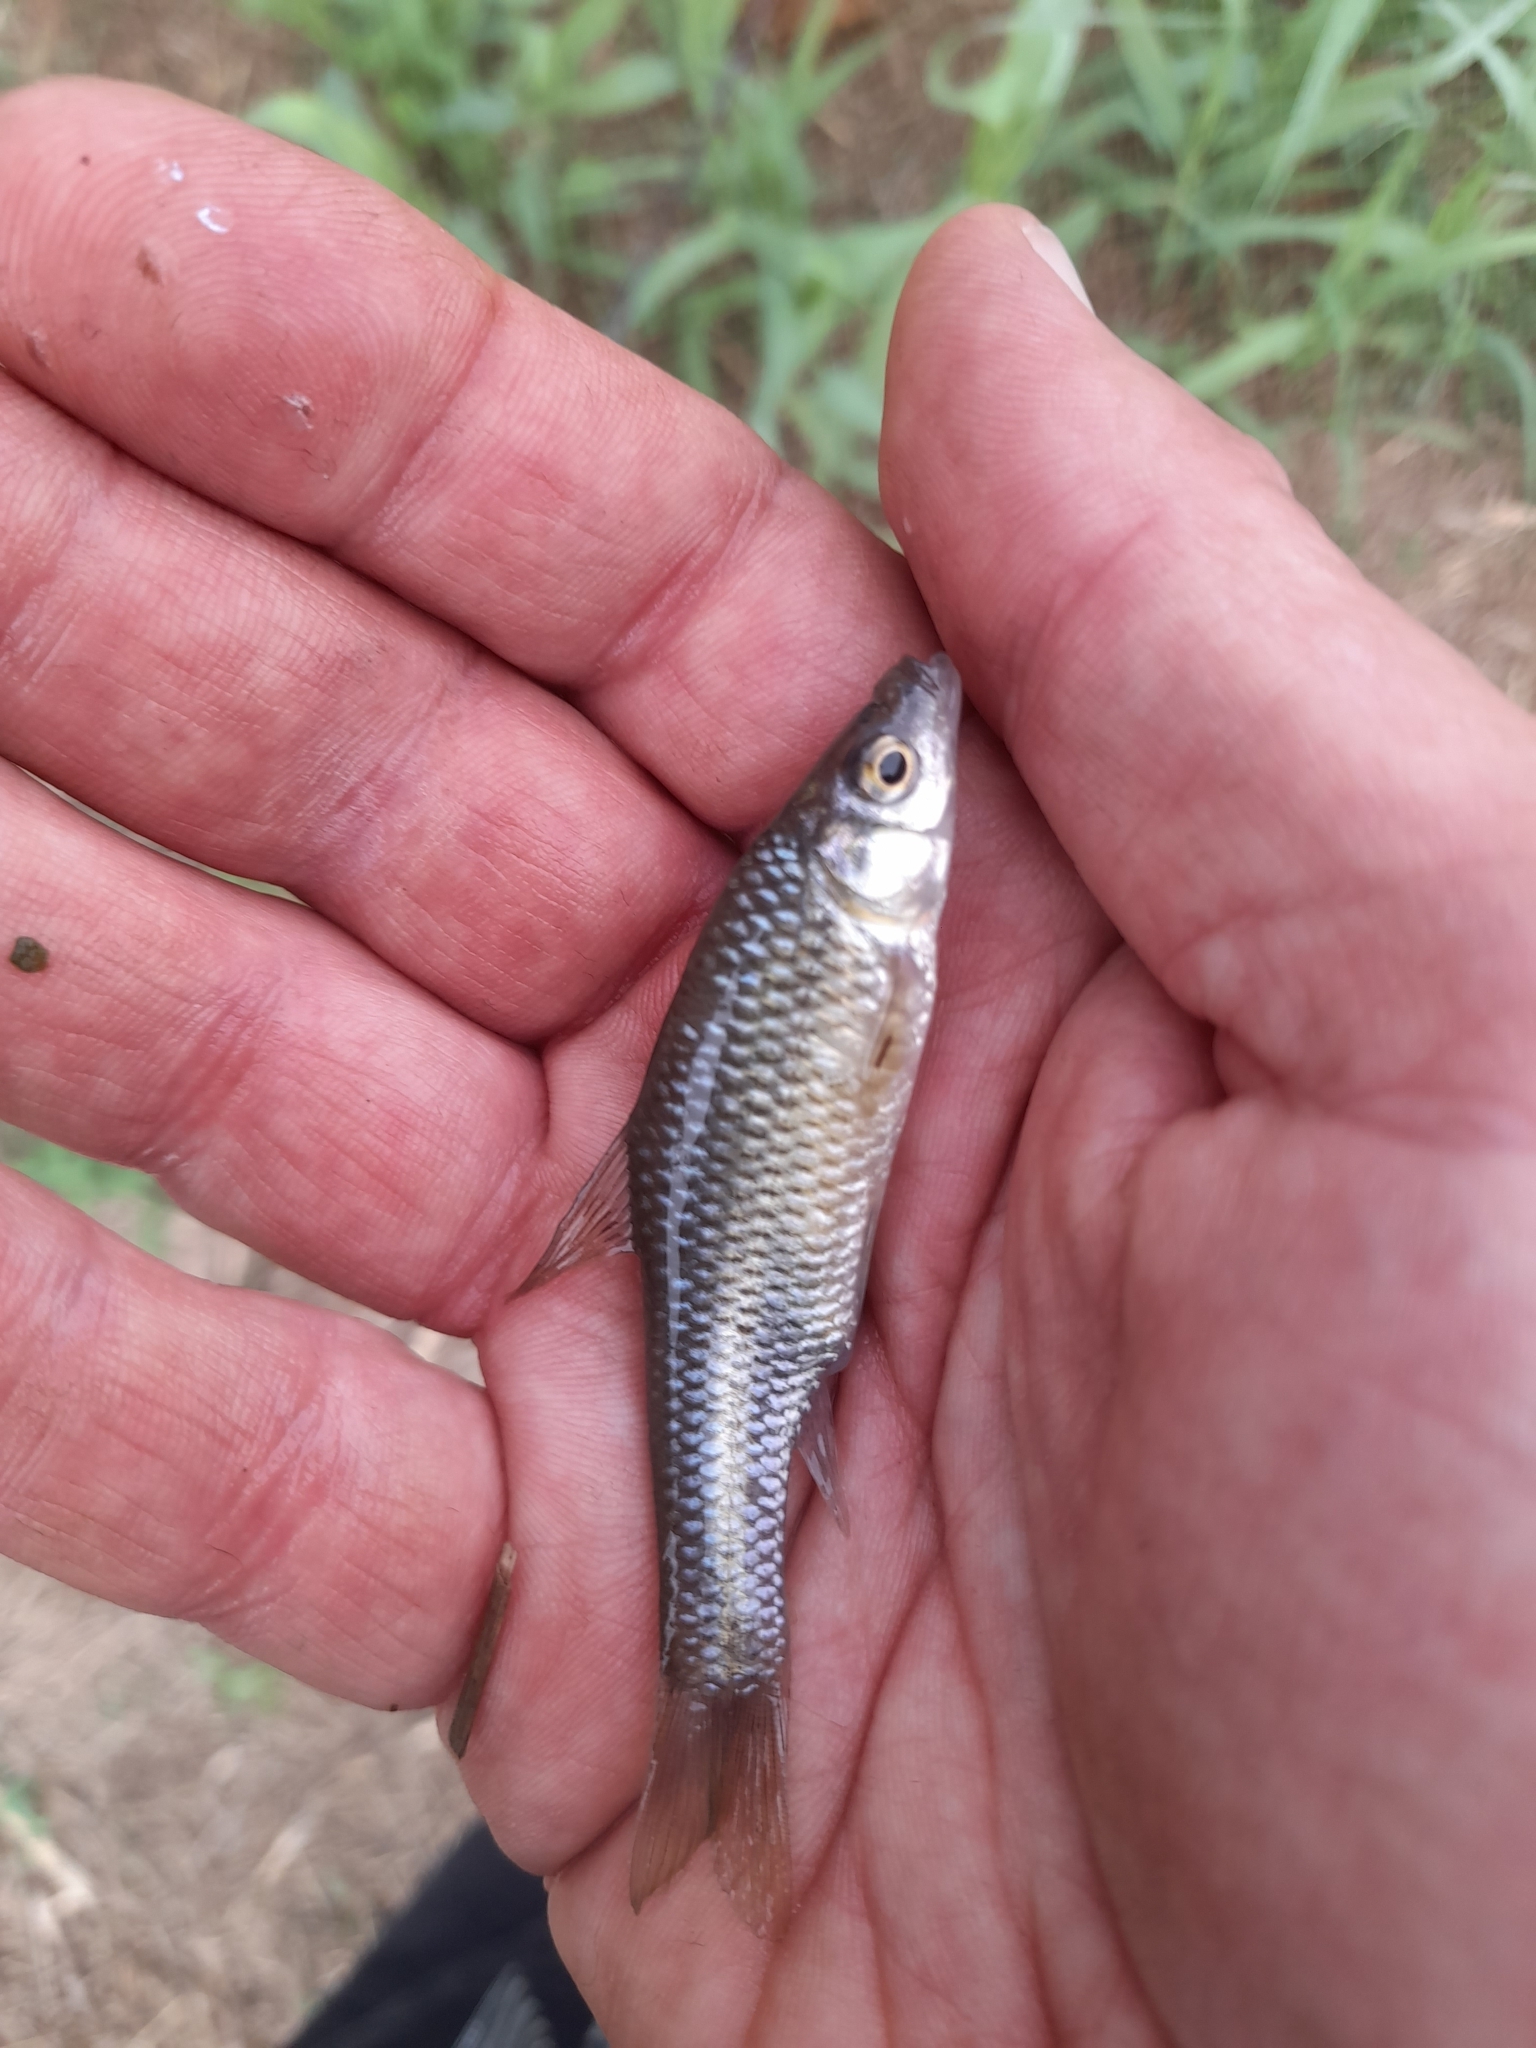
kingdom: Animalia
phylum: Chordata
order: Cypriniformes
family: Cyprinidae
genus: Pseudorasbora
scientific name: Pseudorasbora parva
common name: Topmouth gudgeon
